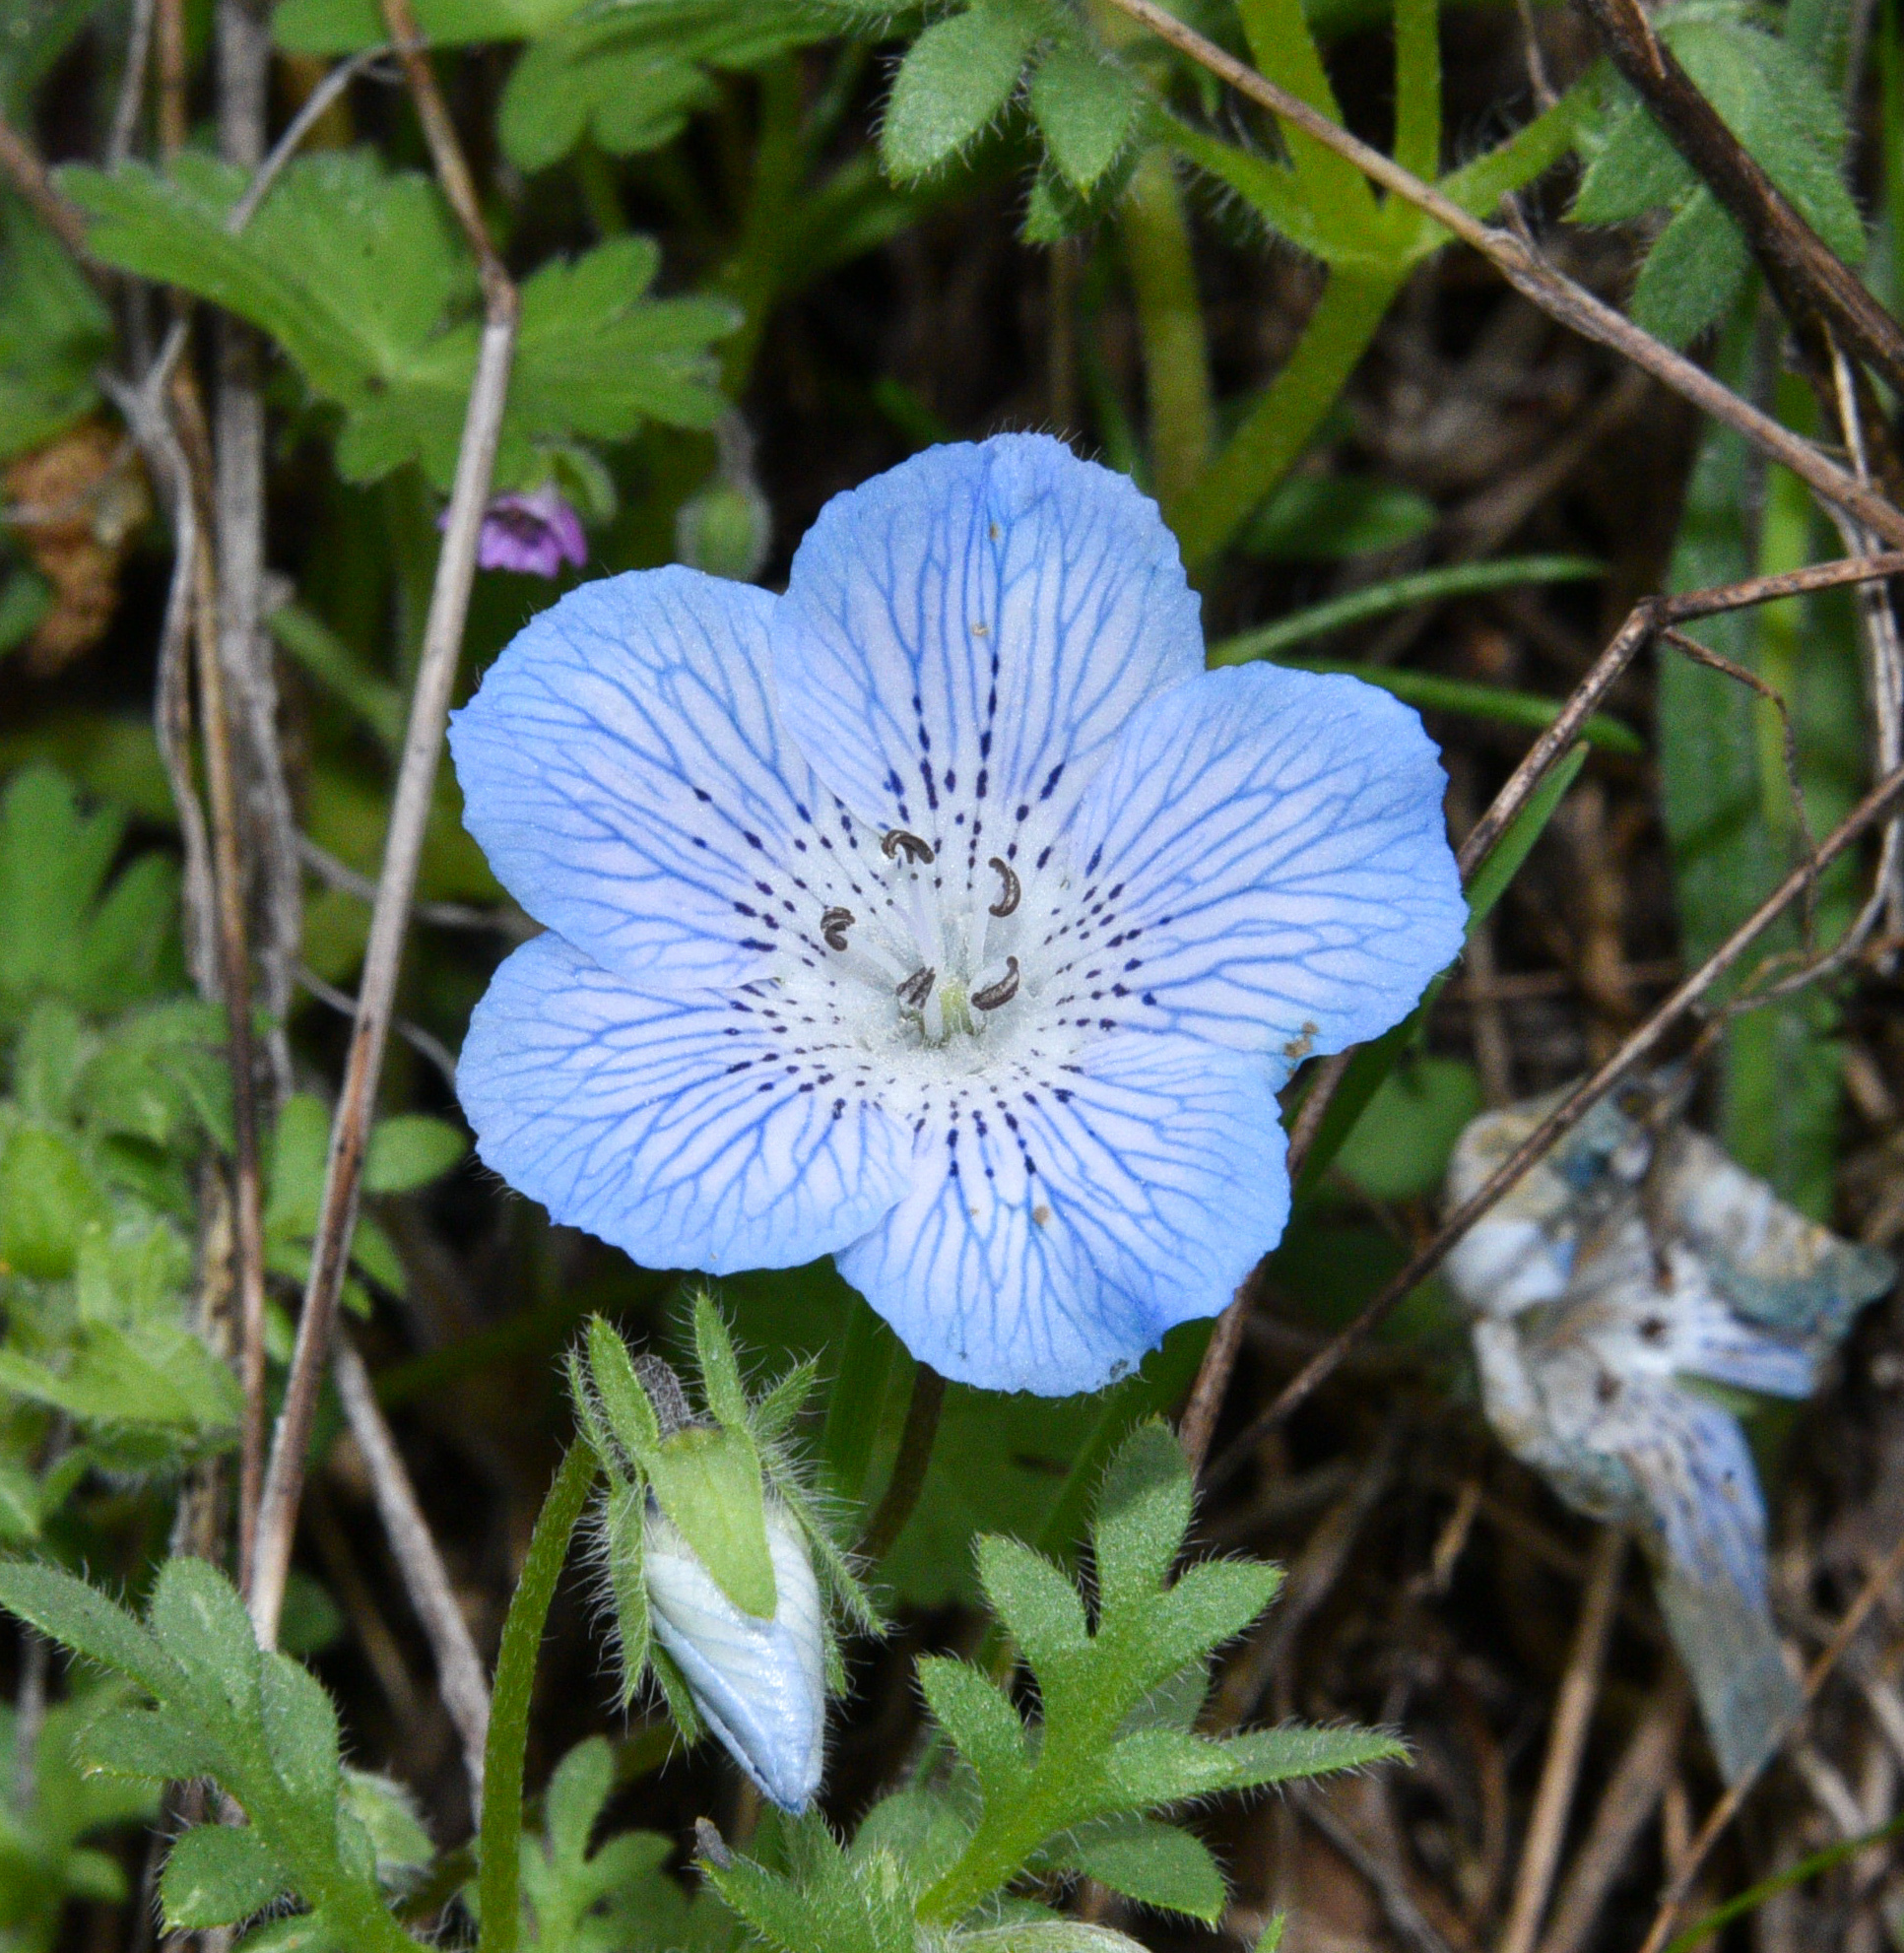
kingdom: Plantae
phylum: Tracheophyta
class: Magnoliopsida
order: Boraginales
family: Hydrophyllaceae
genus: Nemophila
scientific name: Nemophila menziesii
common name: Baby's-blue-eyes
